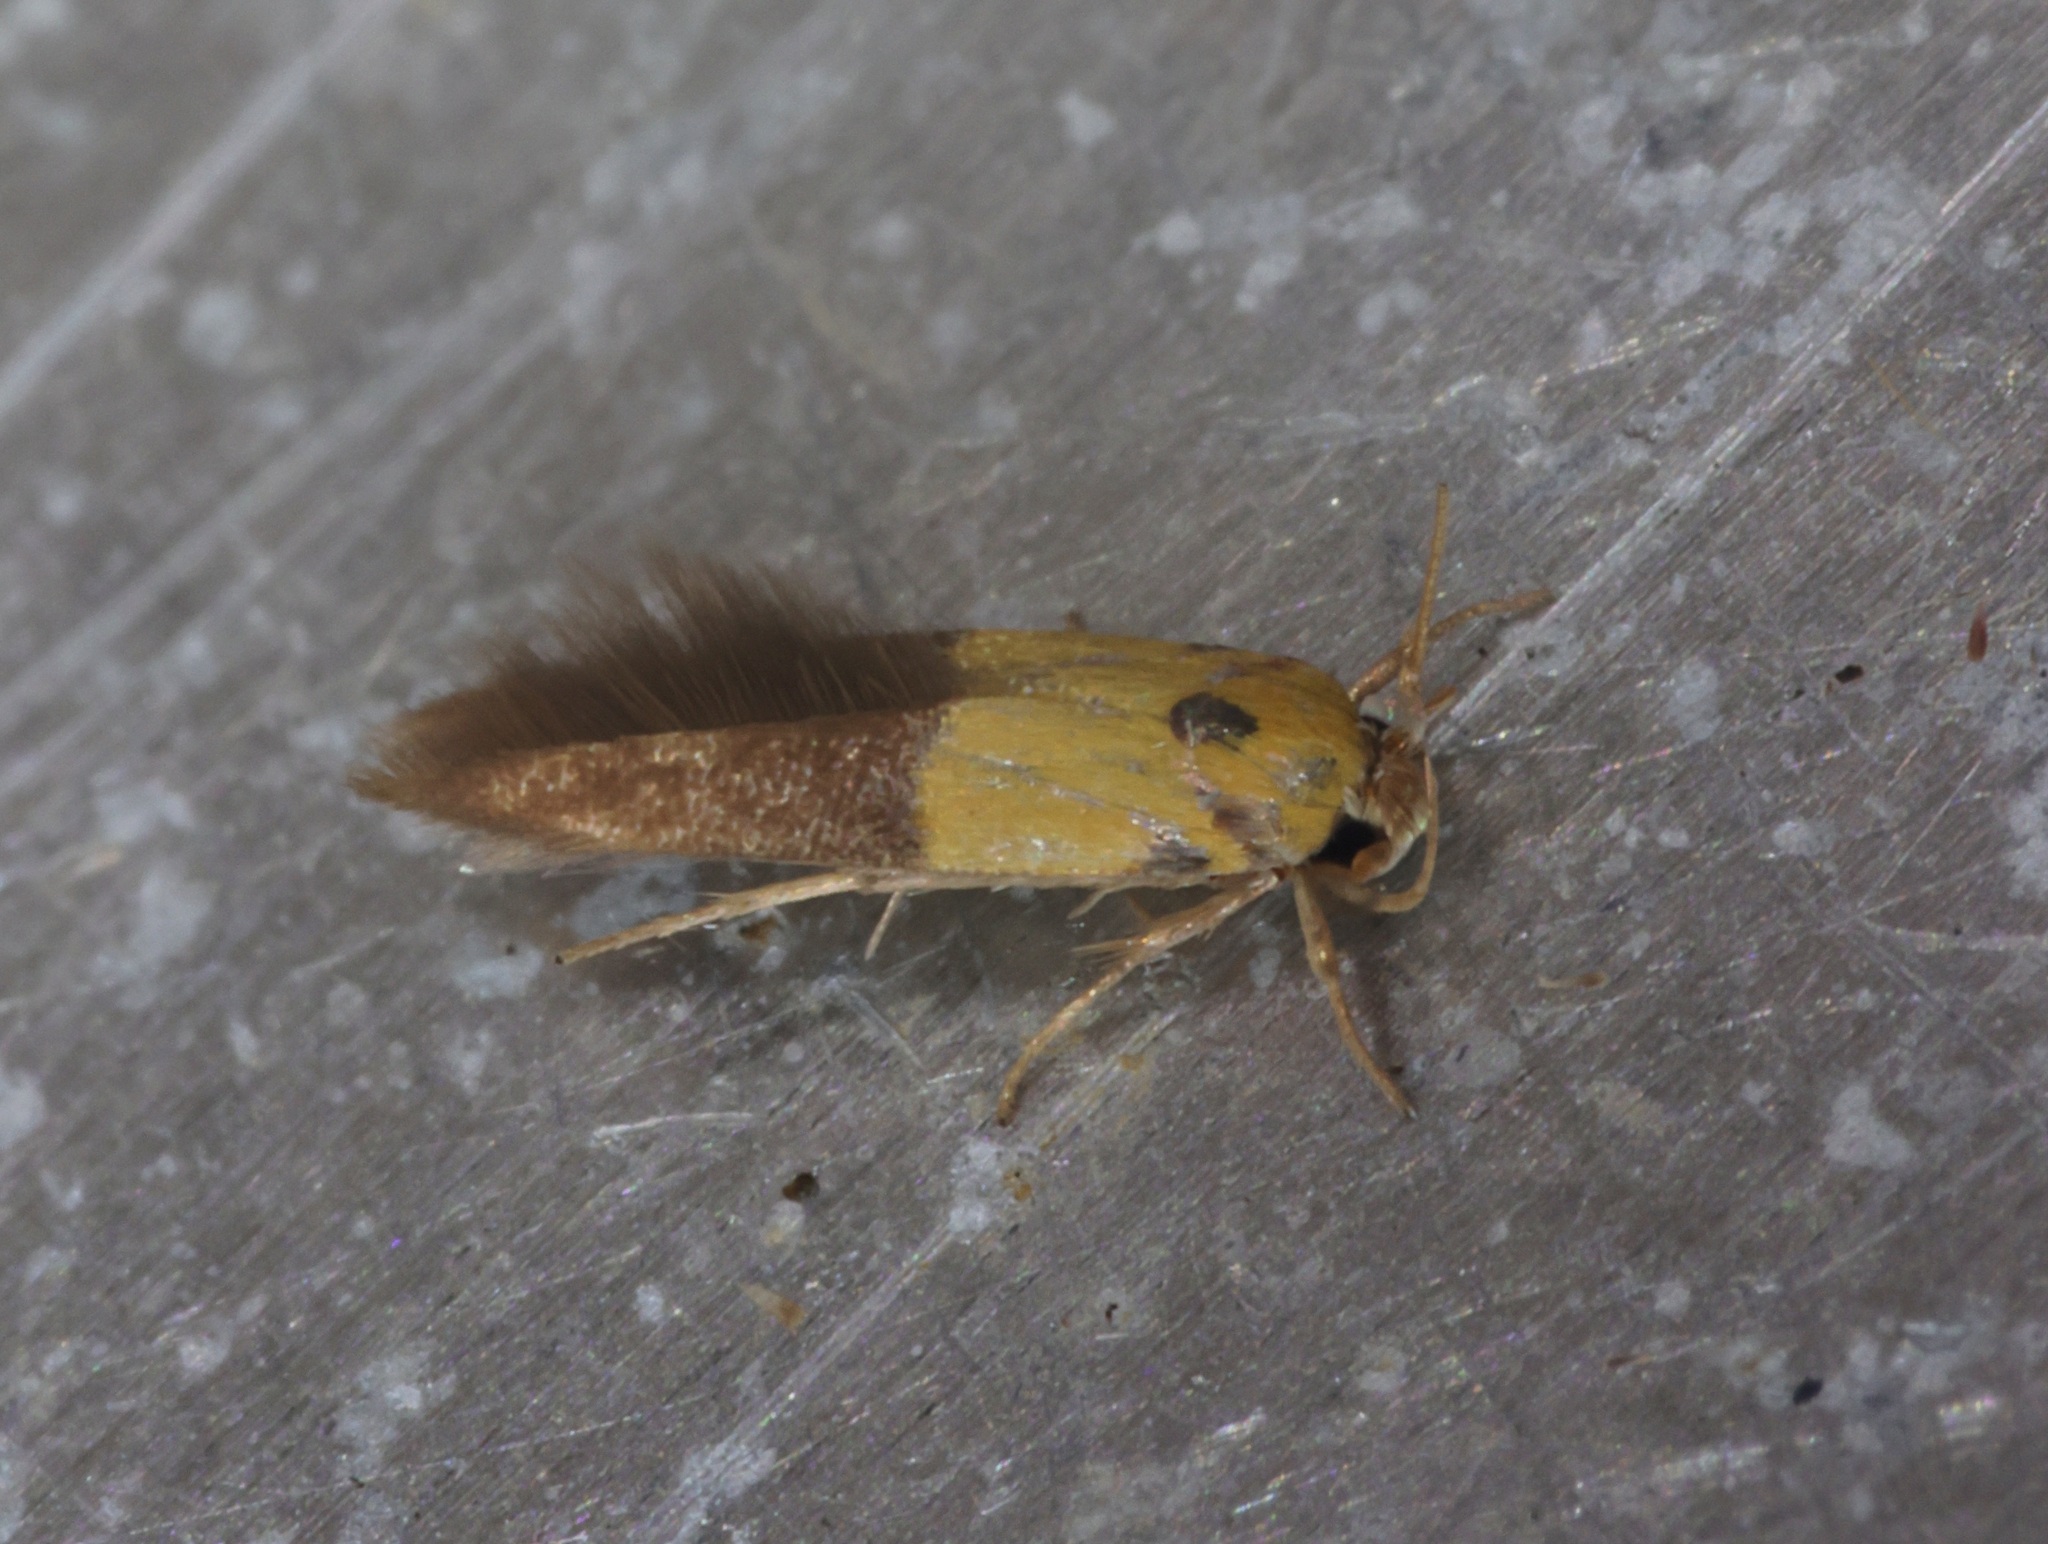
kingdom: Animalia
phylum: Arthropoda
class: Insecta
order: Lepidoptera
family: Stathmopodidae
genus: Stathmopoda
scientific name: Stathmopoda auriferella
